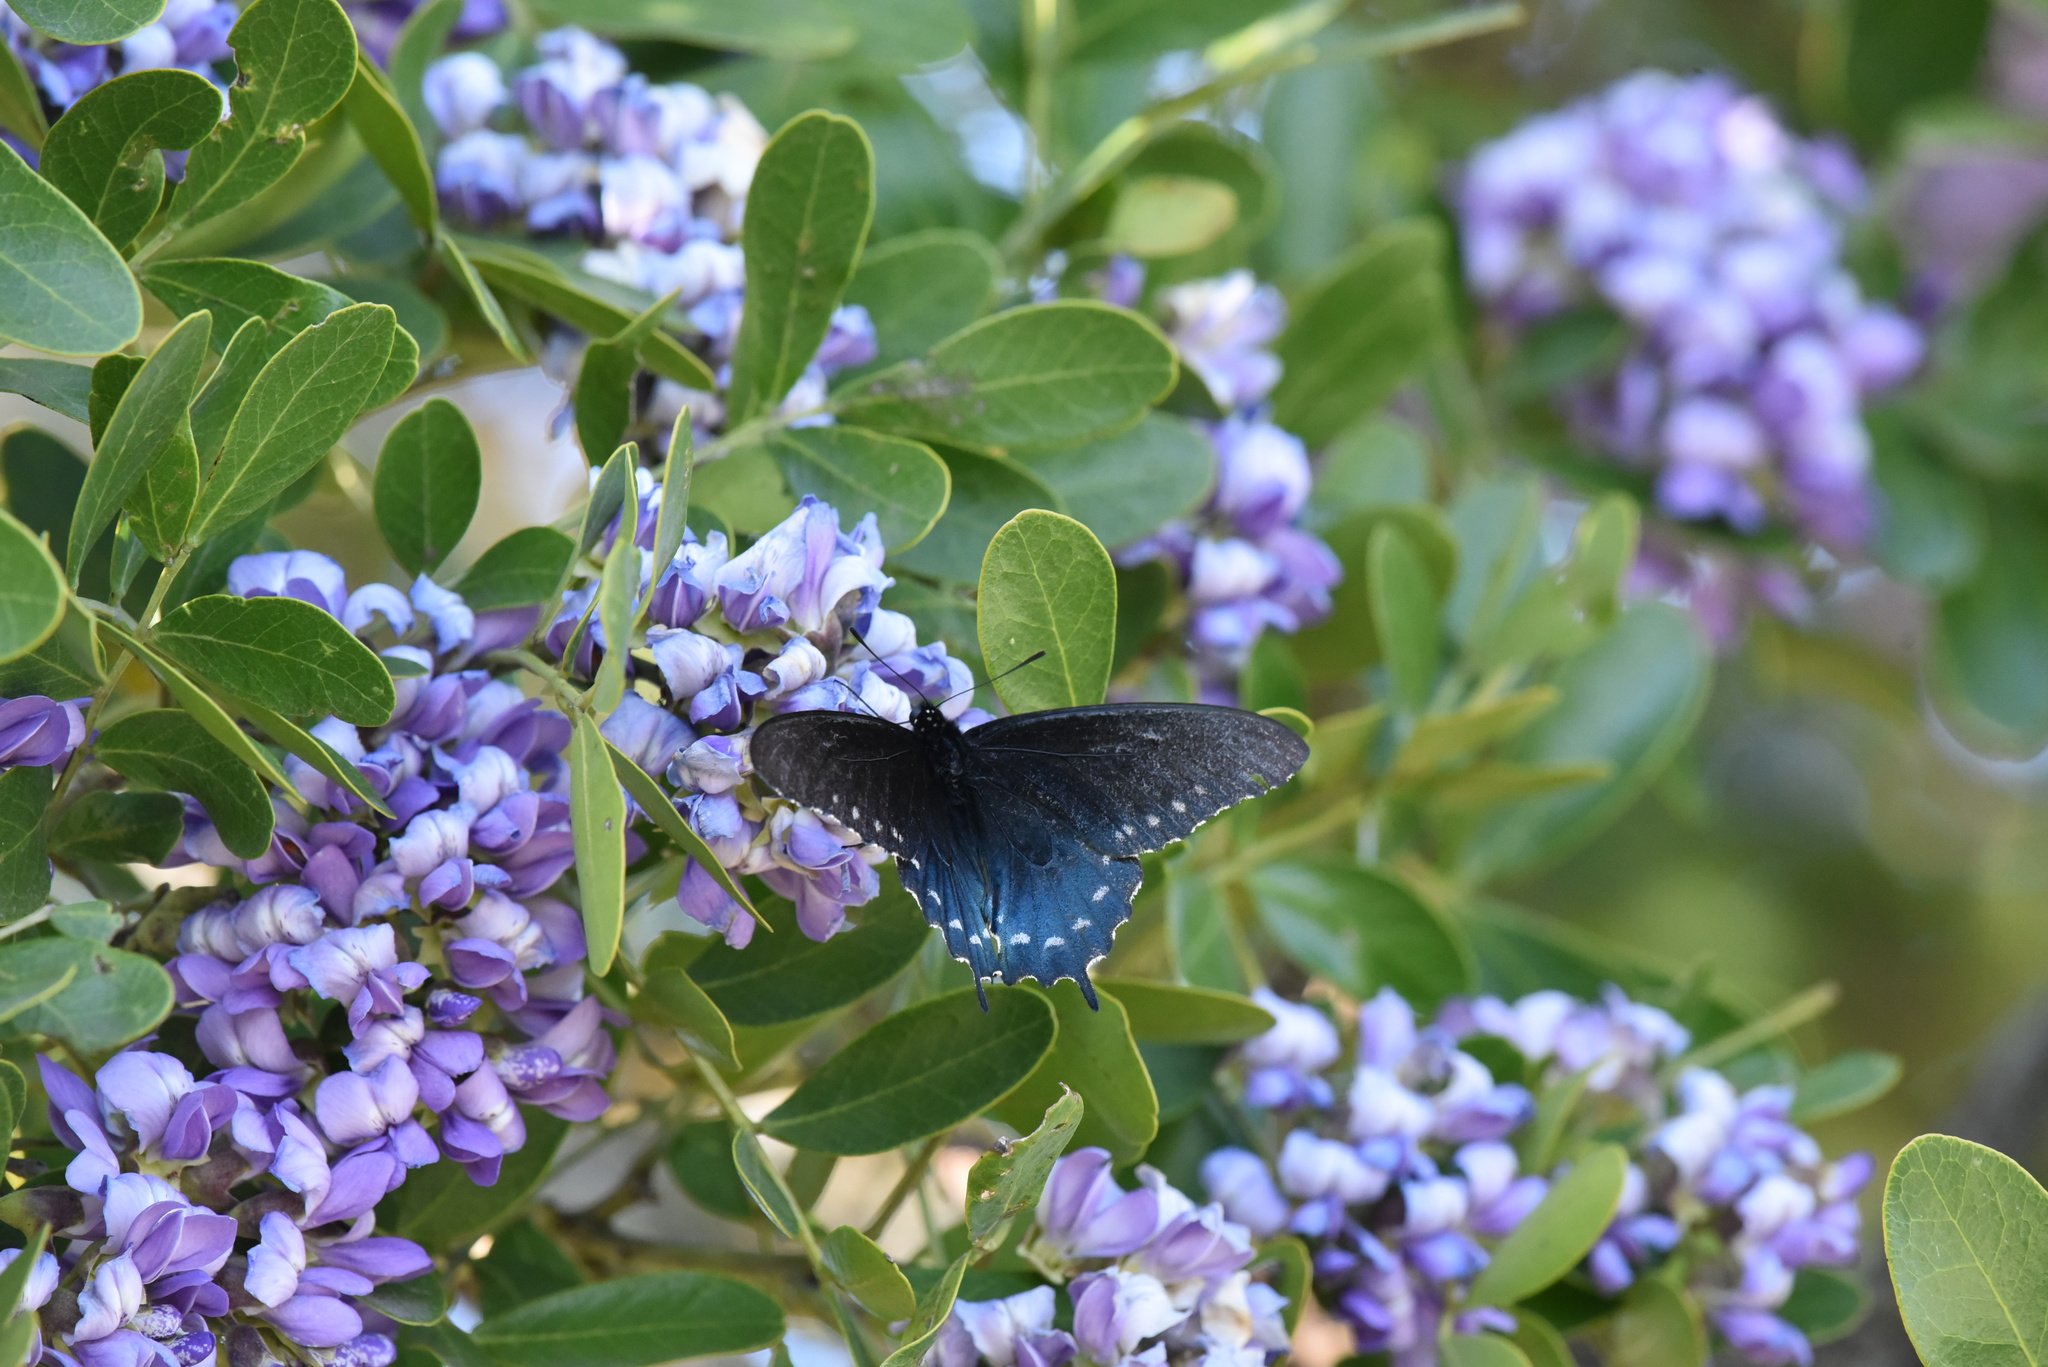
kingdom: Animalia
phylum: Arthropoda
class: Insecta
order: Lepidoptera
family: Papilionidae
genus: Battus
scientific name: Battus philenor
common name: Pipevine swallowtail
